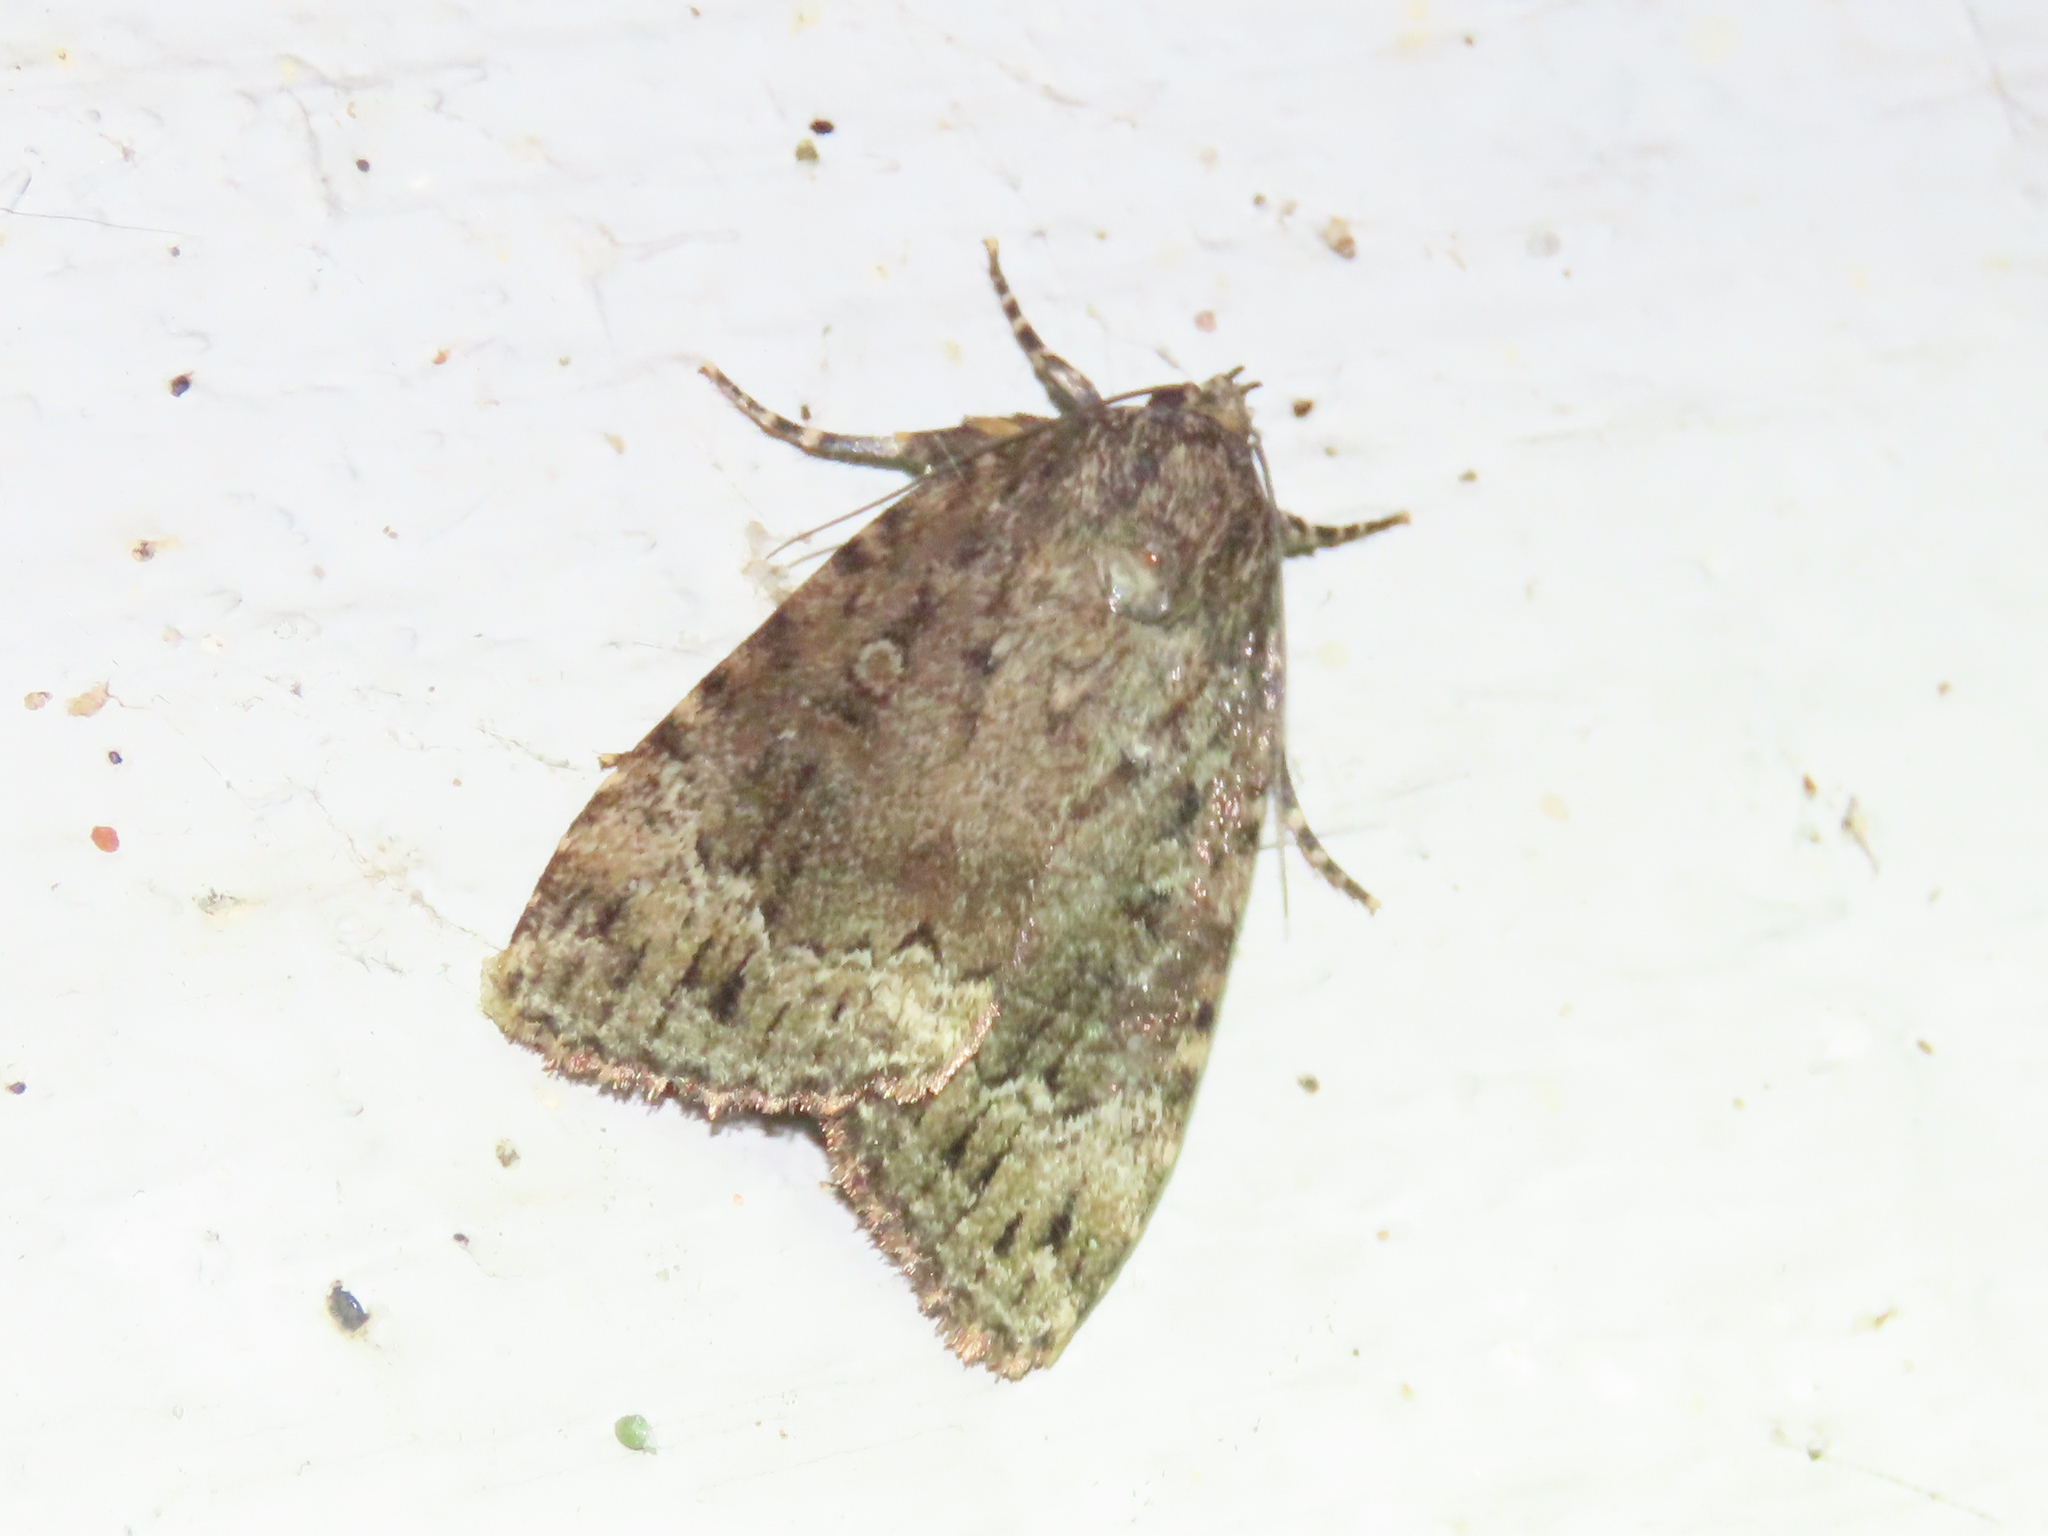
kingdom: Animalia
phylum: Arthropoda
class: Insecta
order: Lepidoptera
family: Noctuidae
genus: Amphipyra
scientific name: Amphipyra pyramidoides
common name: American copper underwing
